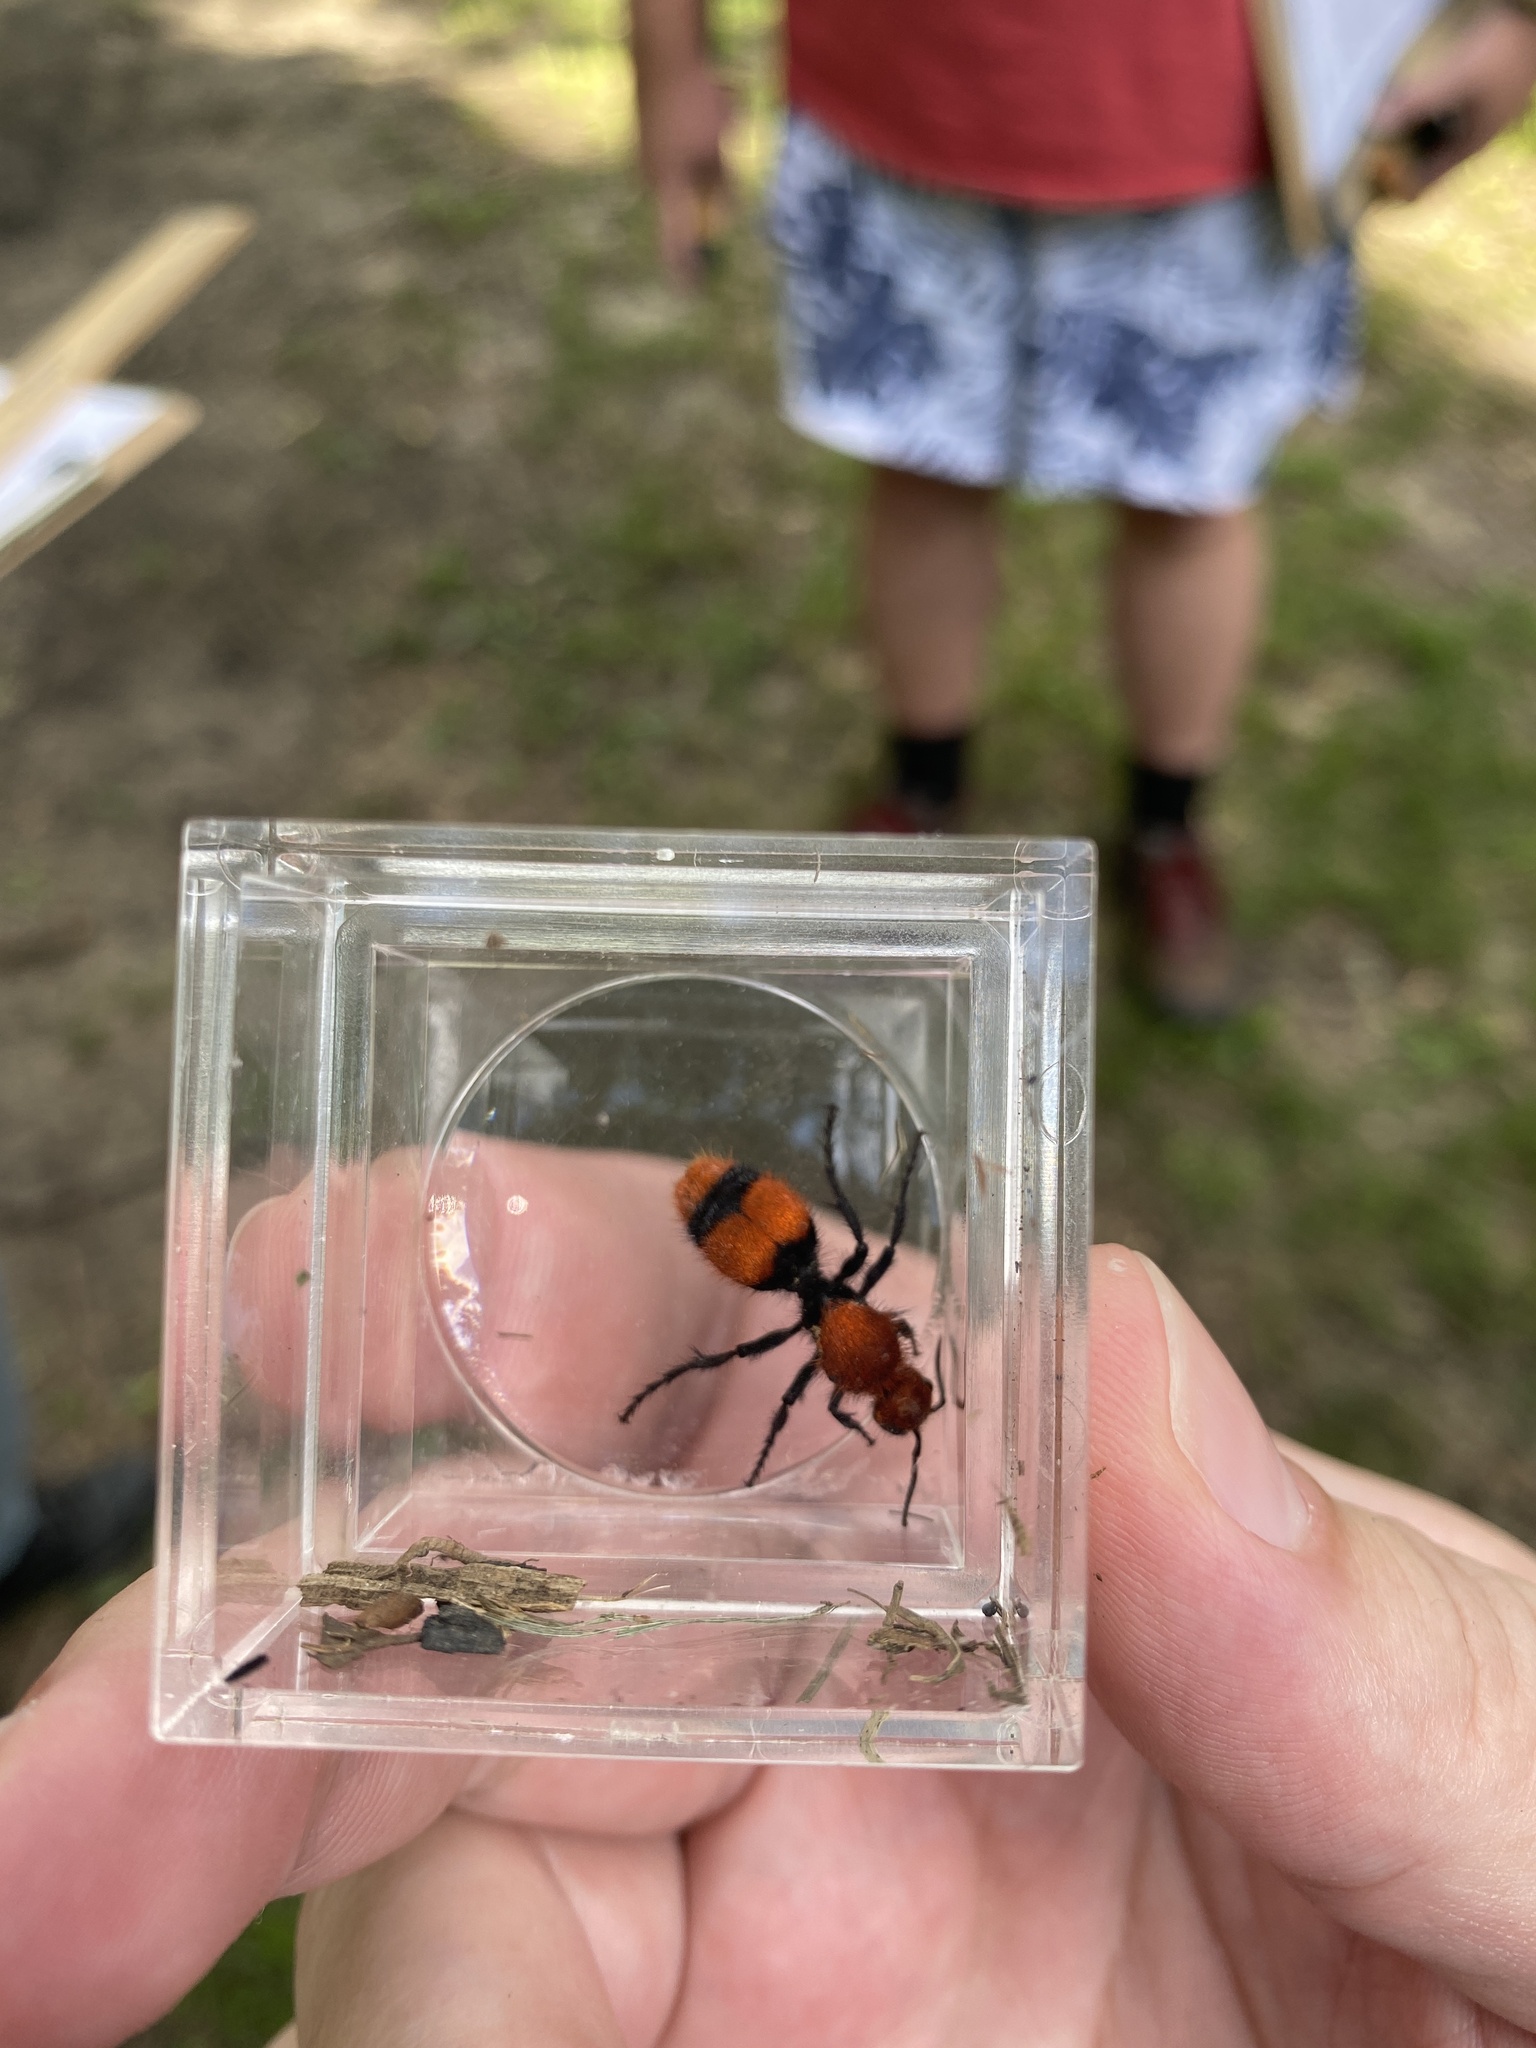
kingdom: Animalia
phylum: Arthropoda
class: Insecta
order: Hymenoptera
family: Mutillidae
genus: Dasymutilla
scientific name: Dasymutilla occidentalis
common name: Common eastern velvet ant
